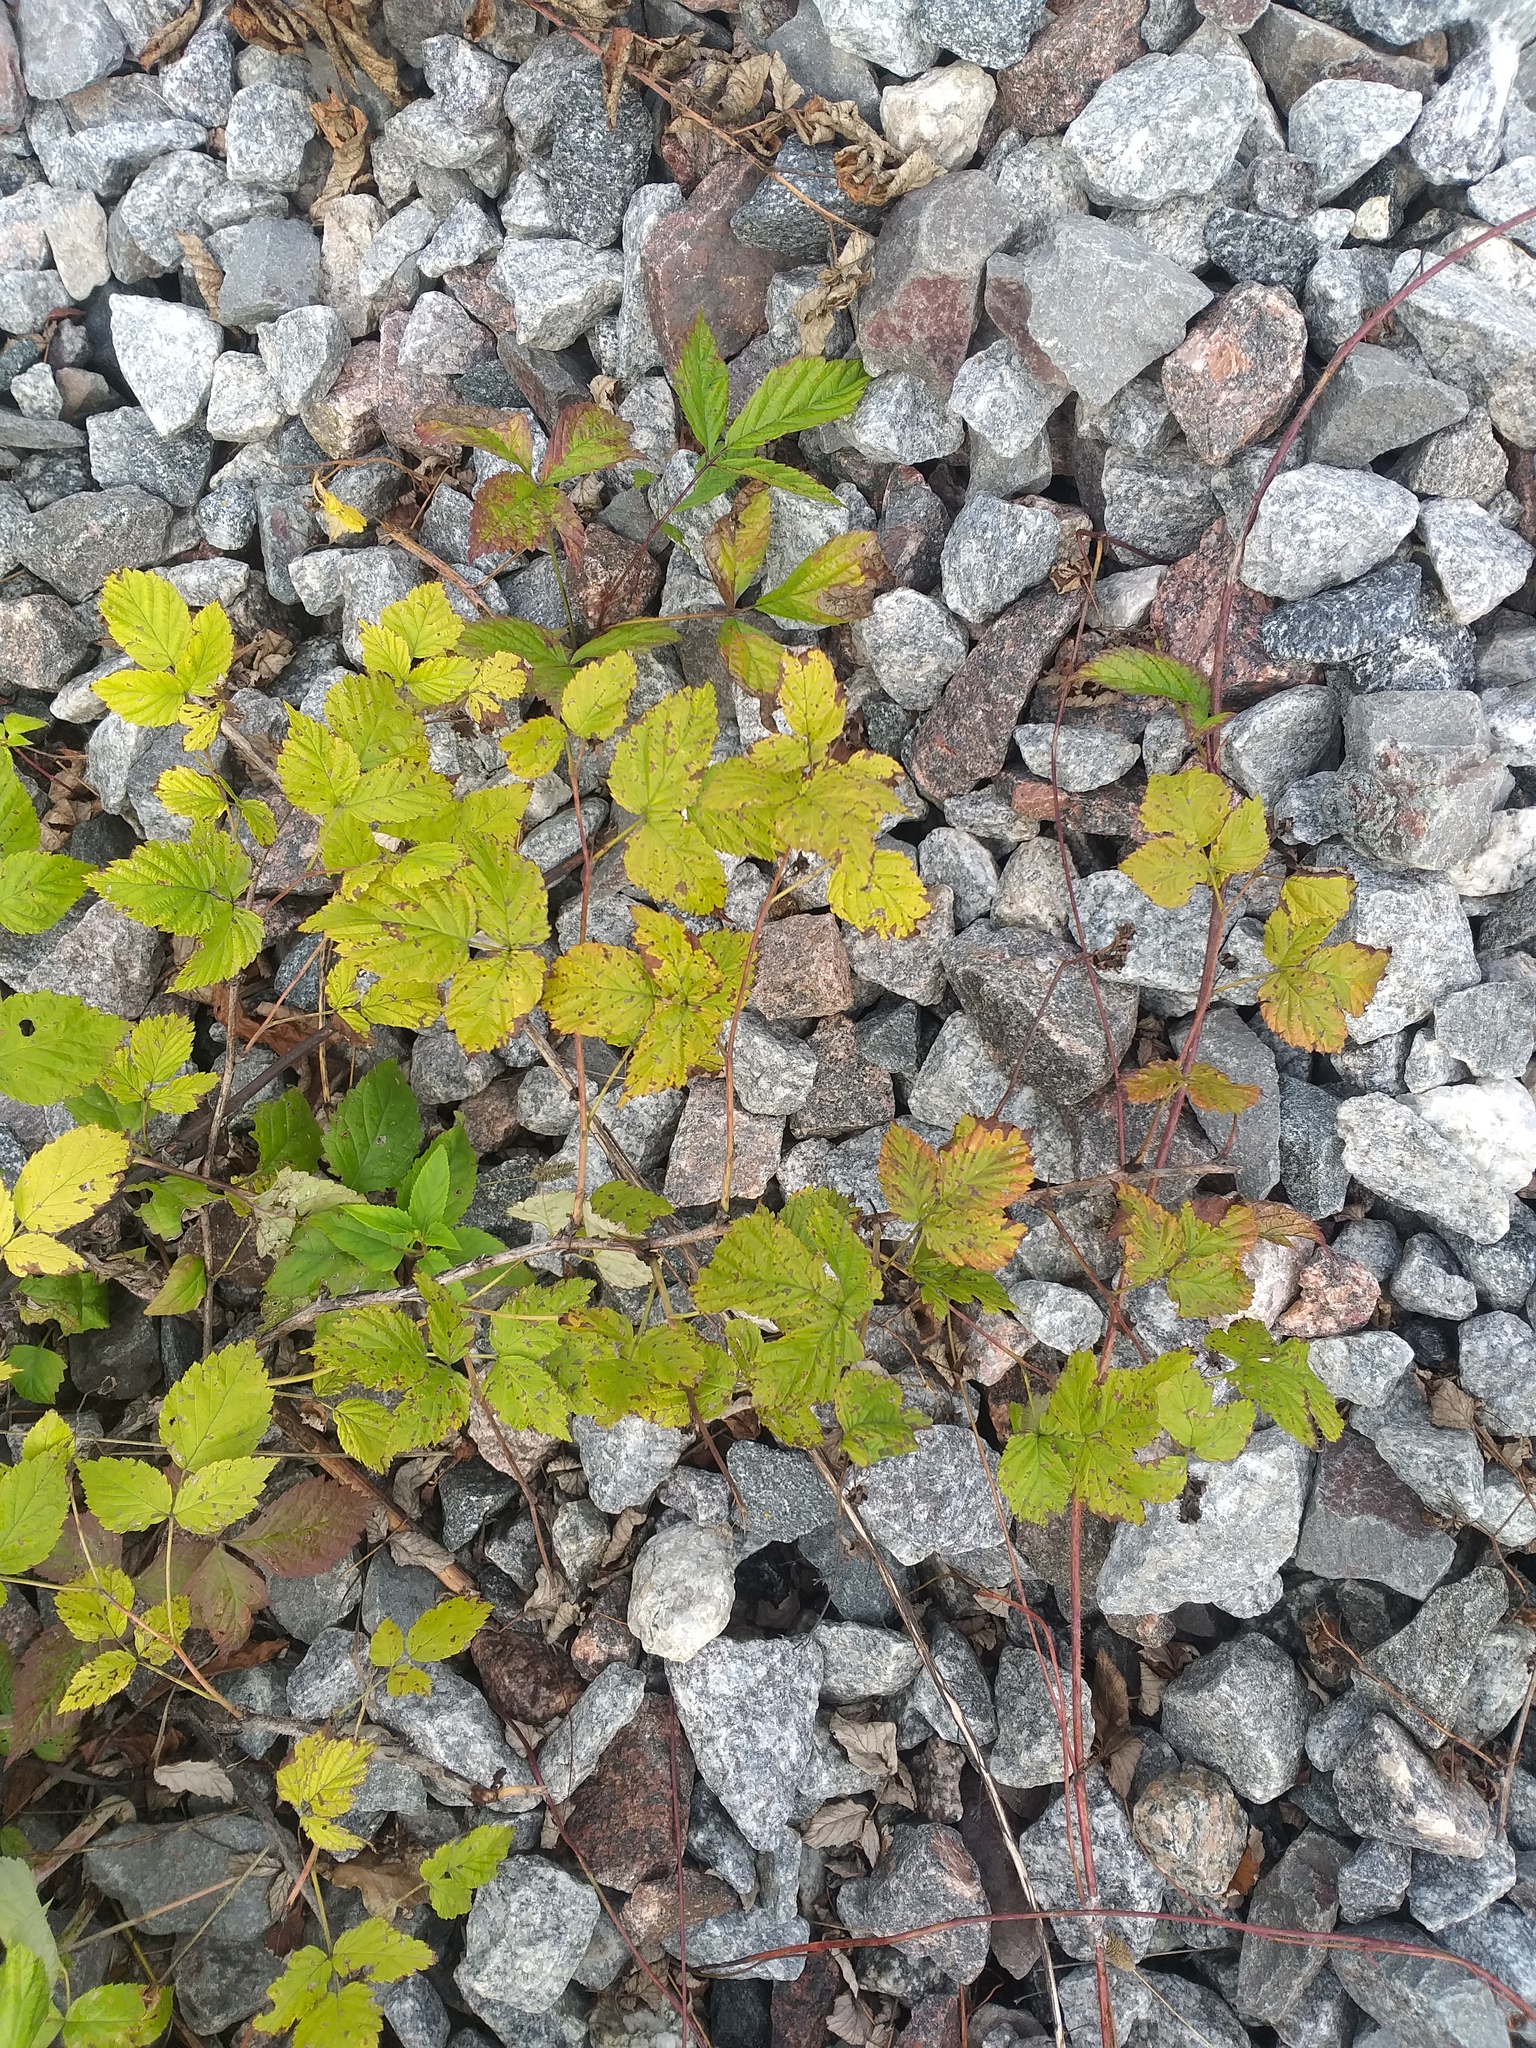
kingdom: Plantae
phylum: Tracheophyta
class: Magnoliopsida
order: Rosales
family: Rosaceae
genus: Rubus
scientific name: Rubus caesius
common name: Dewberry
